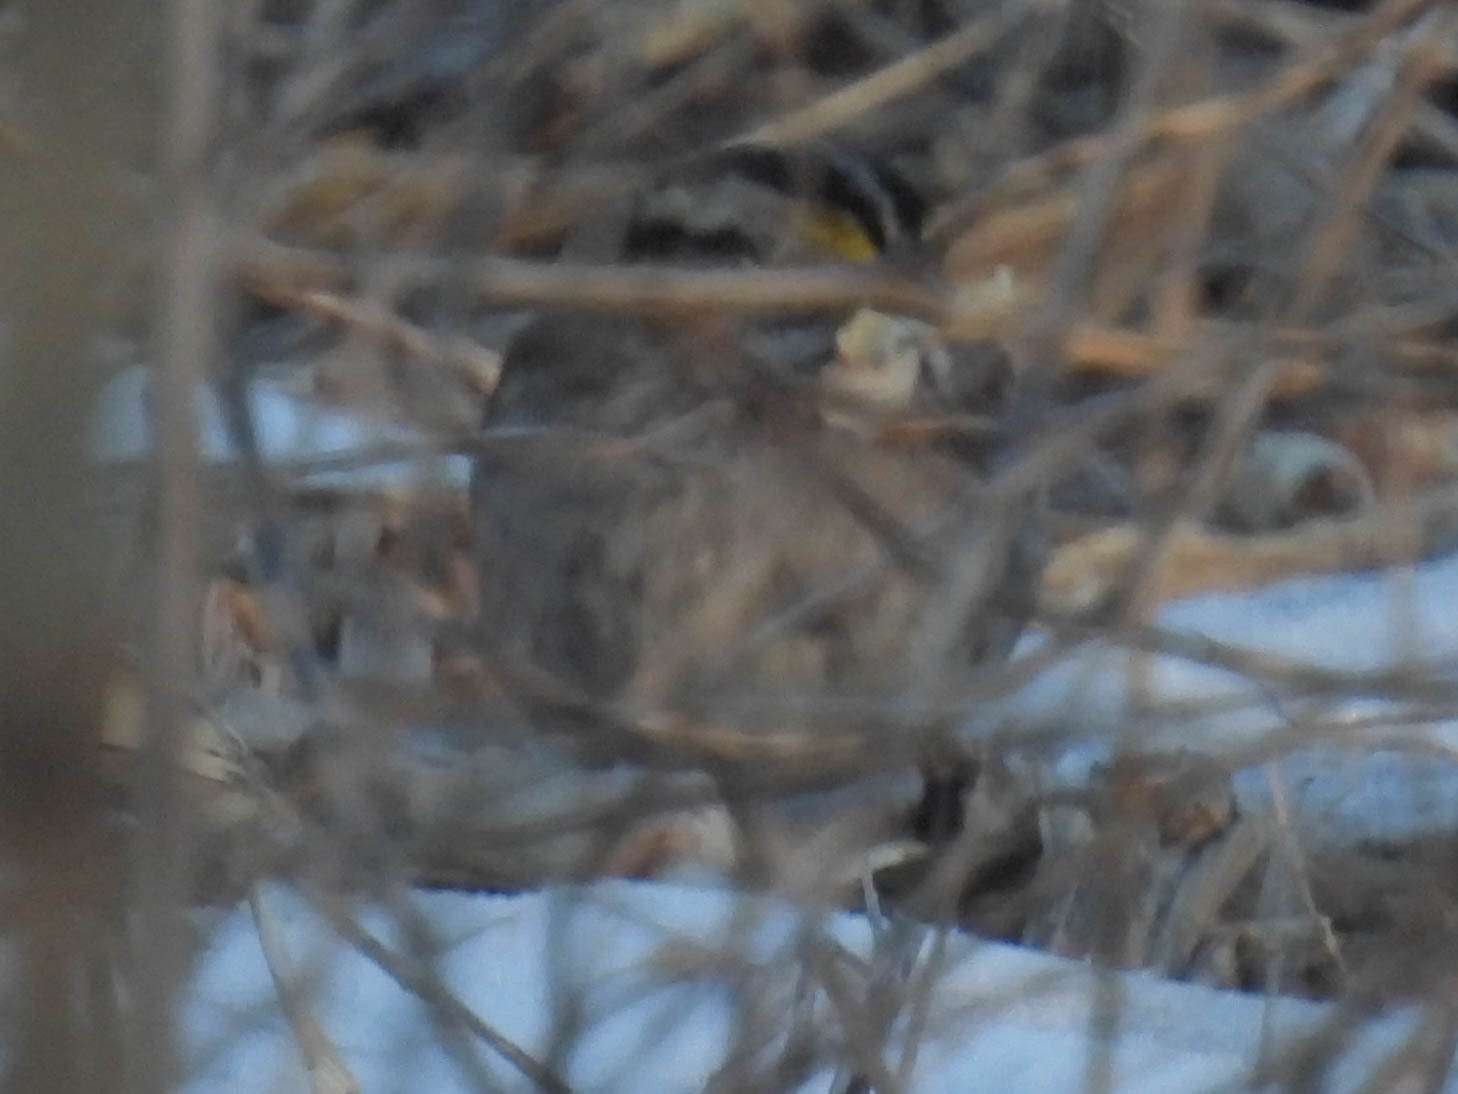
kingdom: Animalia
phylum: Chordata
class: Aves
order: Passeriformes
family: Passerellidae
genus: Zonotrichia
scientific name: Zonotrichia albicollis
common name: White-throated sparrow
